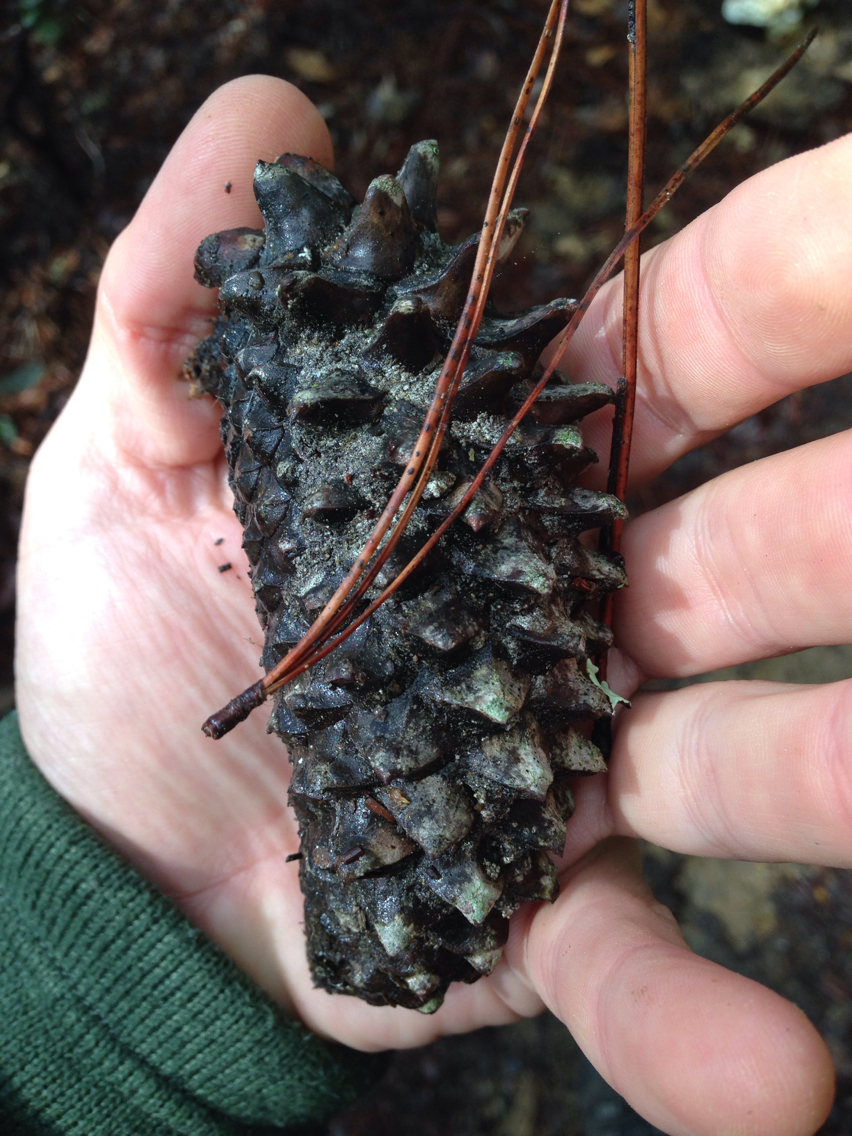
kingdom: Plantae
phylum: Tracheophyta
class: Pinopsida
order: Pinales
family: Pinaceae
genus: Pinus
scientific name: Pinus attenuata
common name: Knobcone pine
